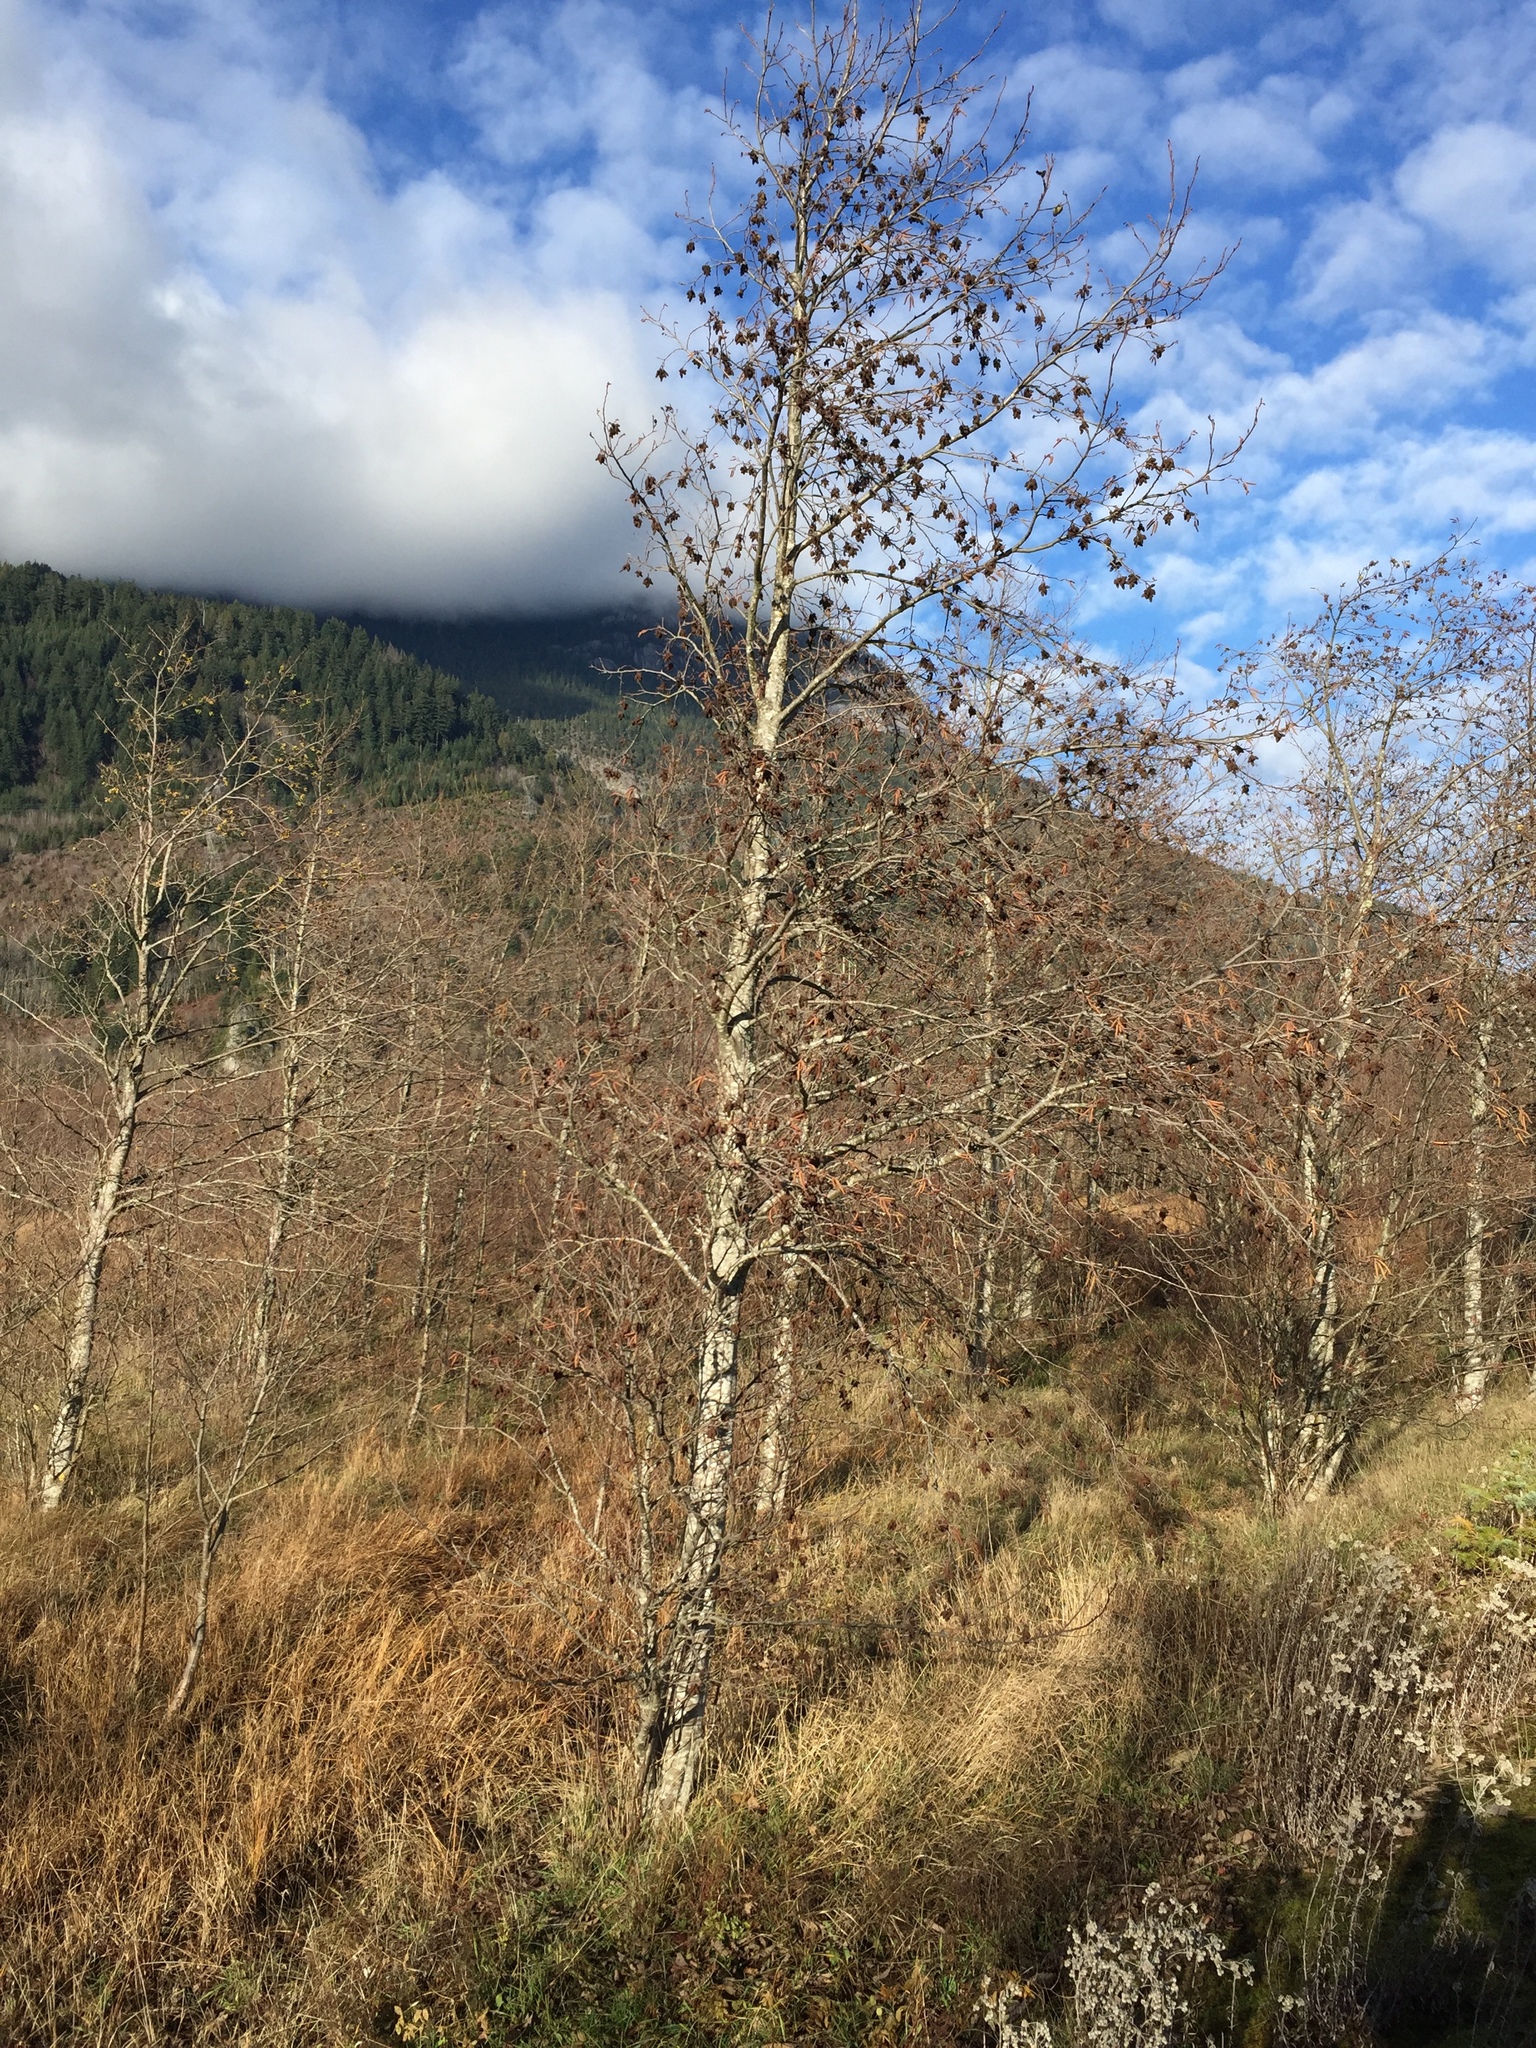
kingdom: Plantae
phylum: Tracheophyta
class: Magnoliopsida
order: Fagales
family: Betulaceae
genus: Alnus
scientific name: Alnus rubra
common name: Red alder
